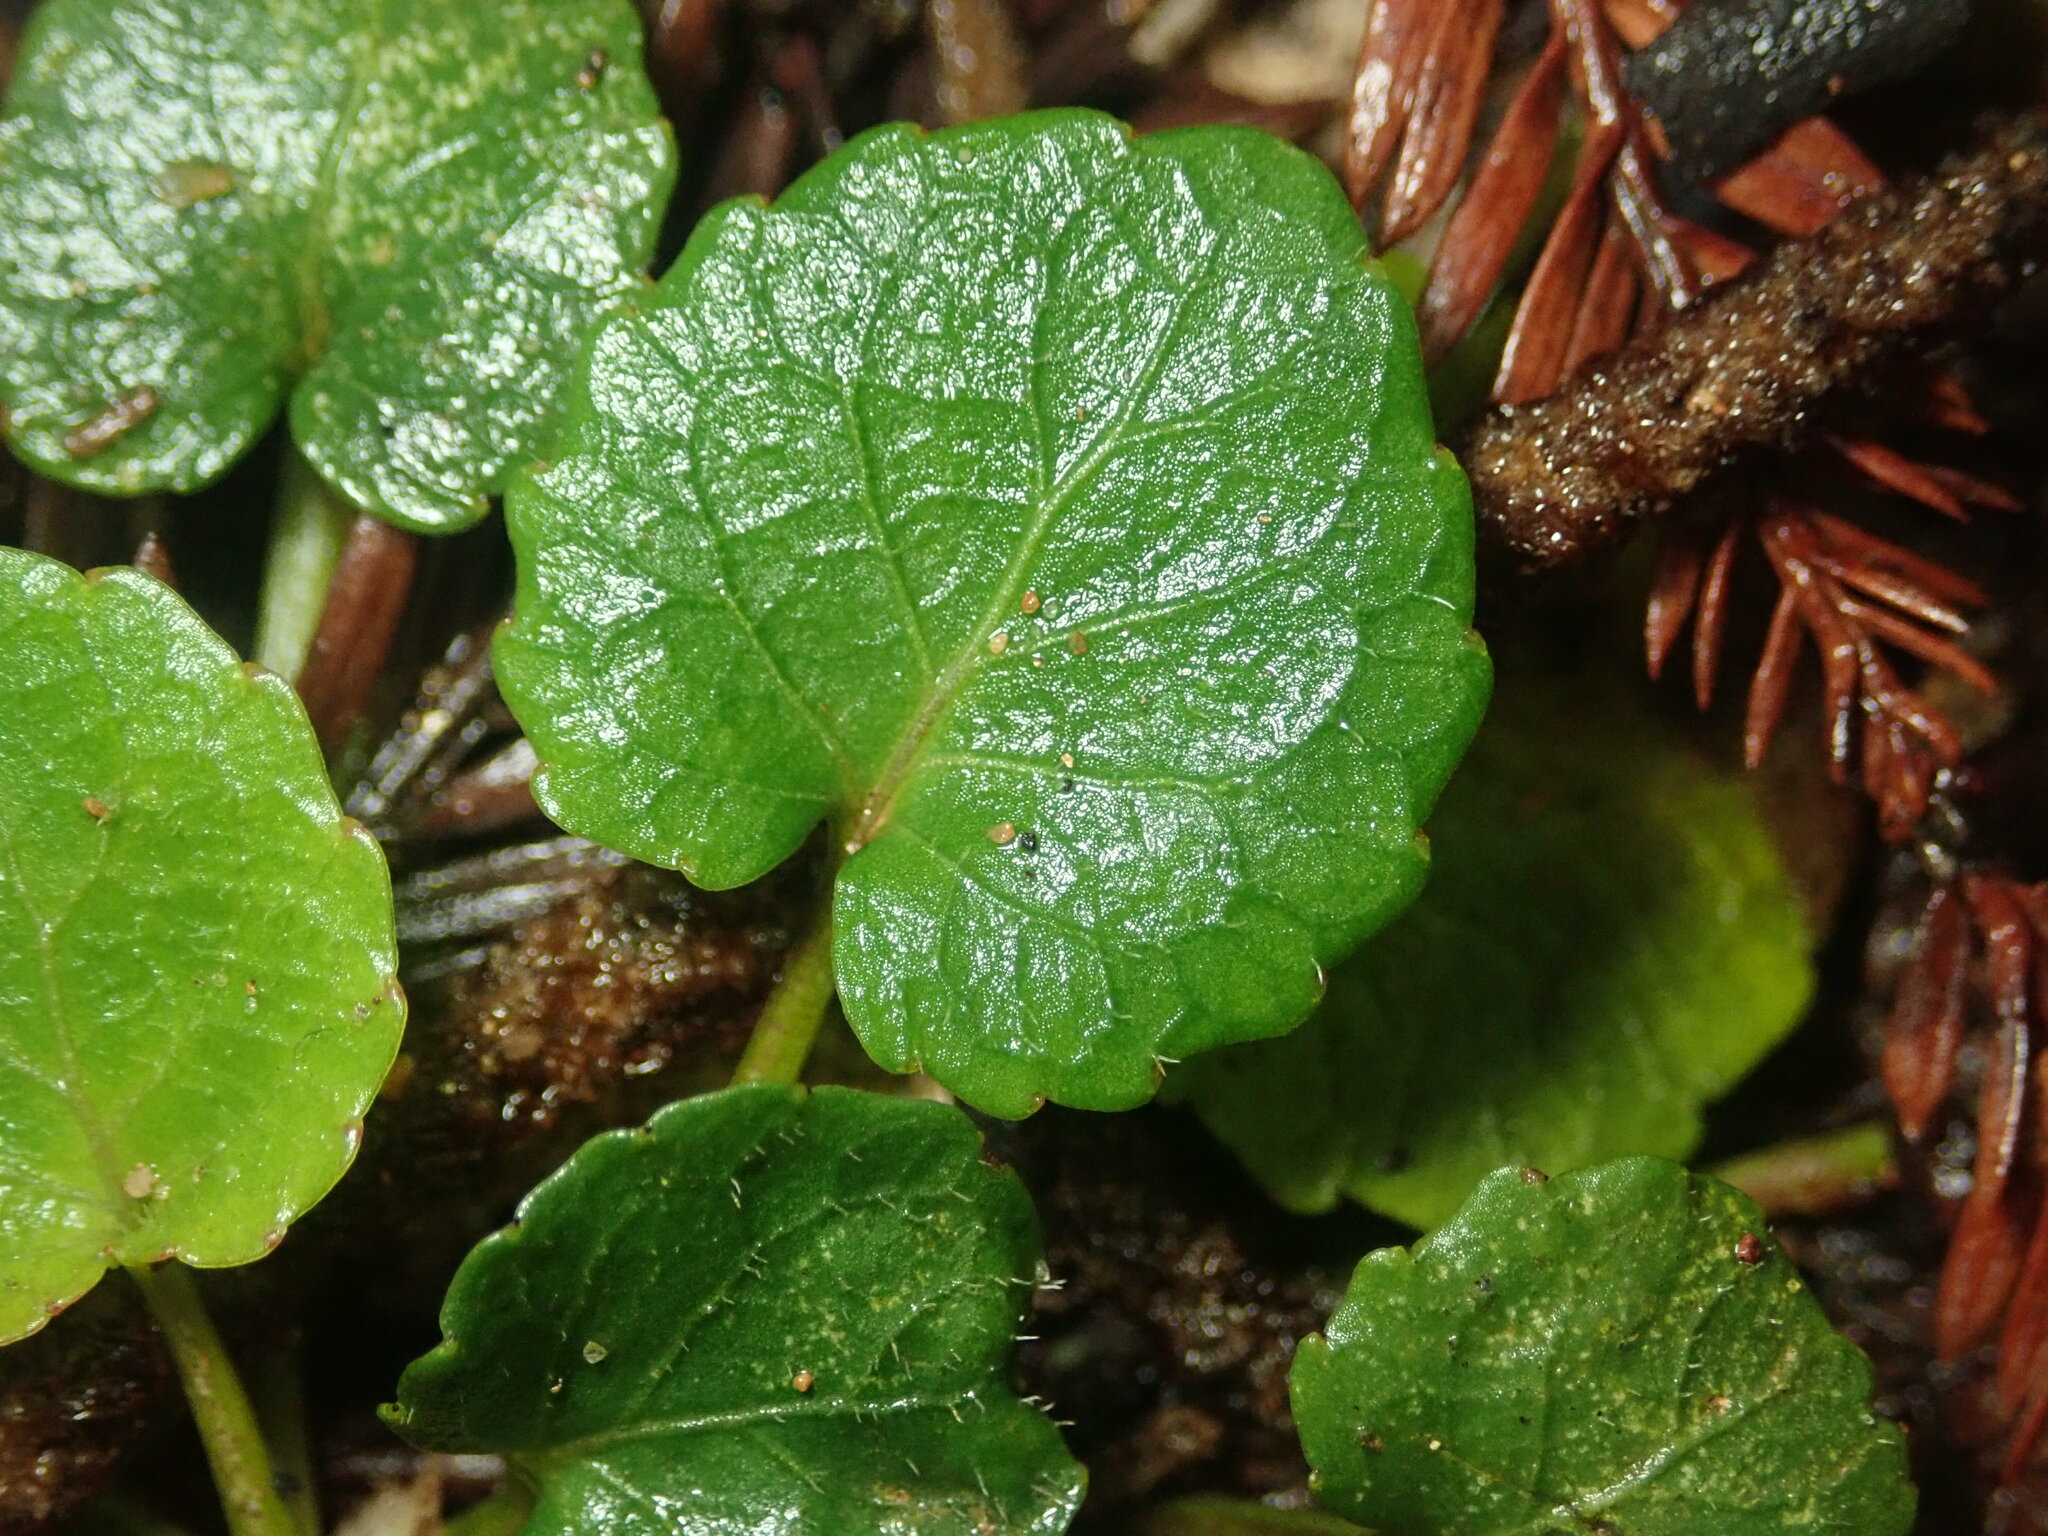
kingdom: Plantae
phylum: Tracheophyta
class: Magnoliopsida
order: Malpighiales
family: Violaceae
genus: Viola
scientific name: Viola sempervirens
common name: Evergreen violet
